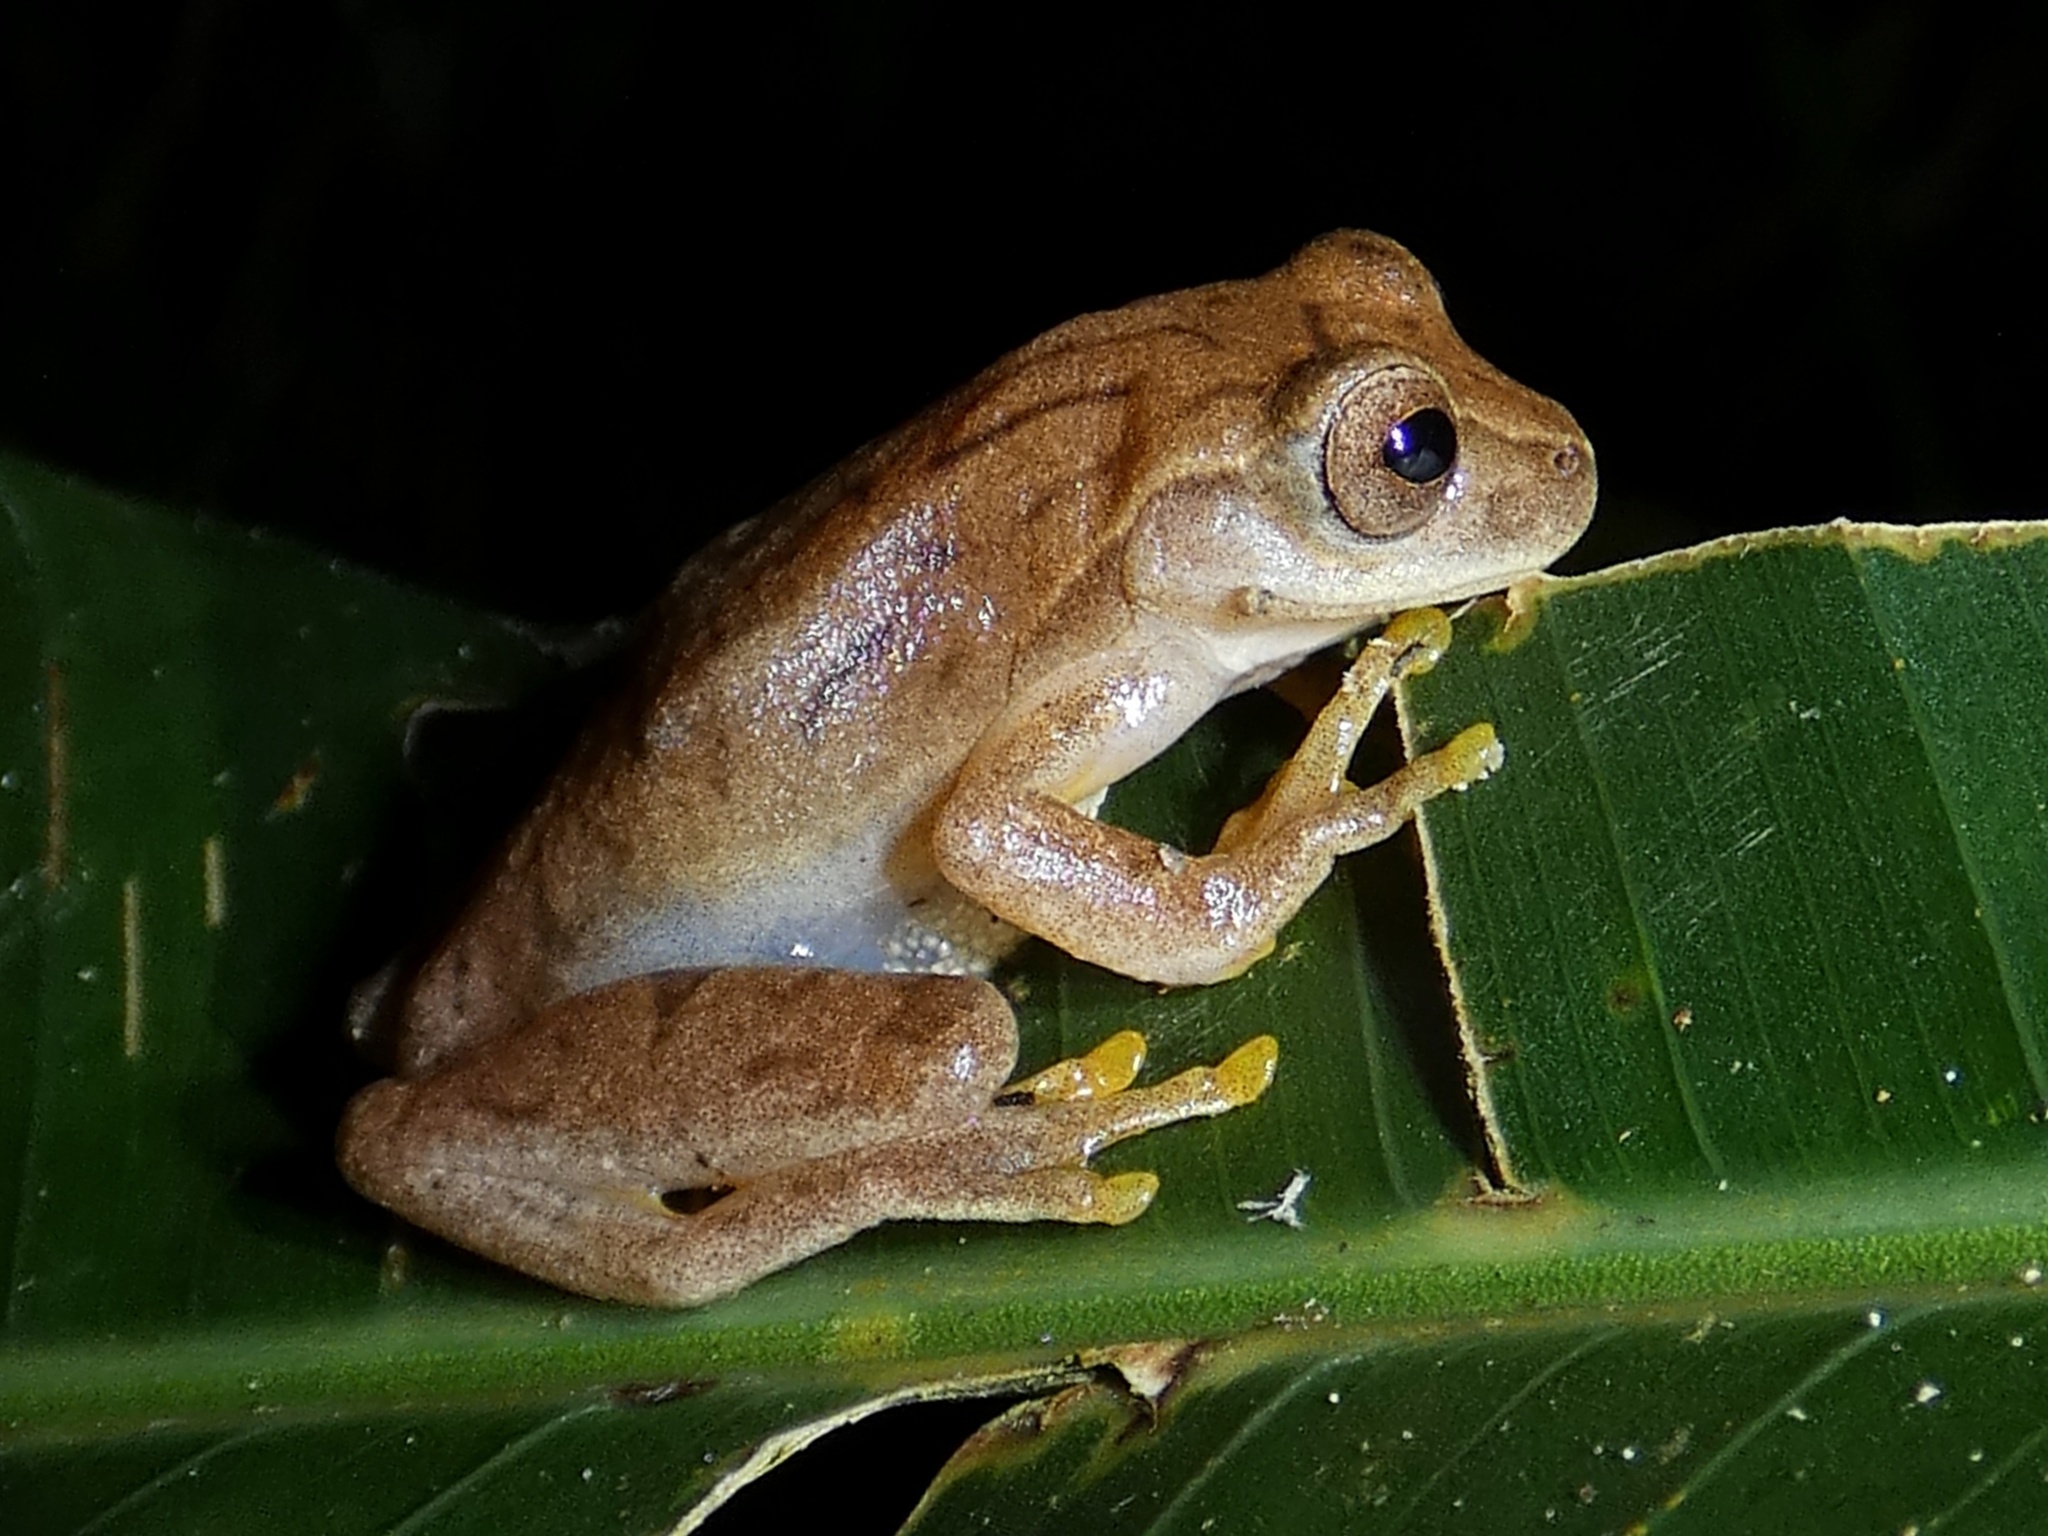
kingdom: Animalia
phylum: Chordata
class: Amphibia
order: Anura
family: Hylidae
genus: Dendropsophus
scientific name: Dendropsophus microcephalus
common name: Small-headed treefrog
